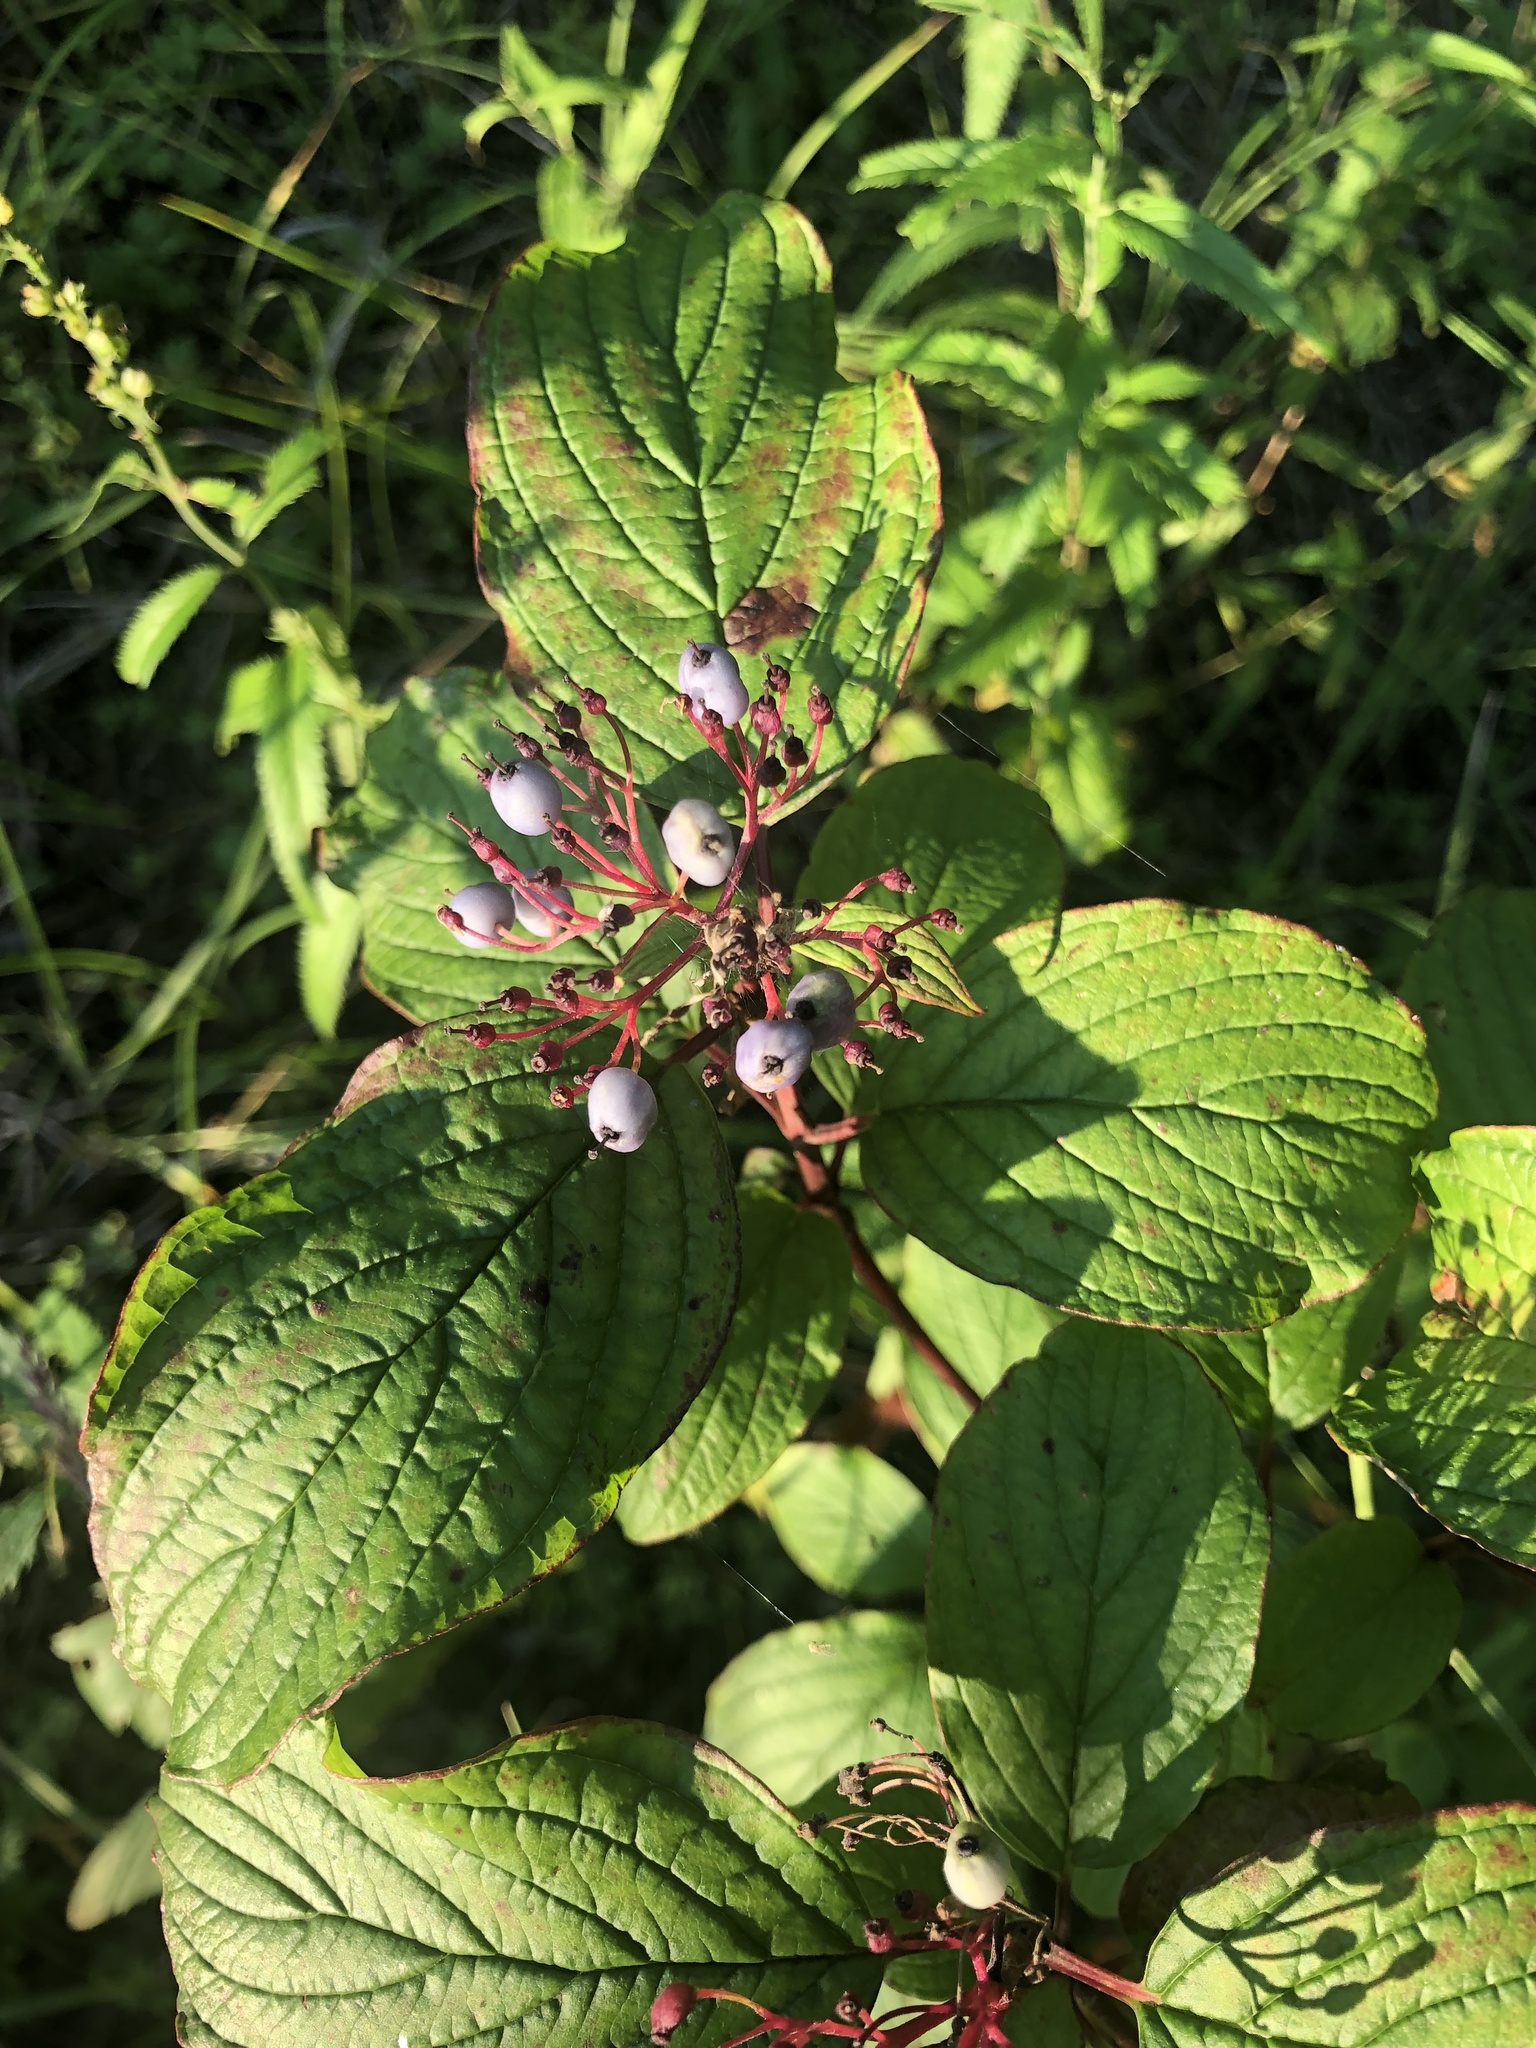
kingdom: Plantae
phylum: Tracheophyta
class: Magnoliopsida
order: Cornales
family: Cornaceae
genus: Cornus
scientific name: Cornus alba
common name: White dogwood
